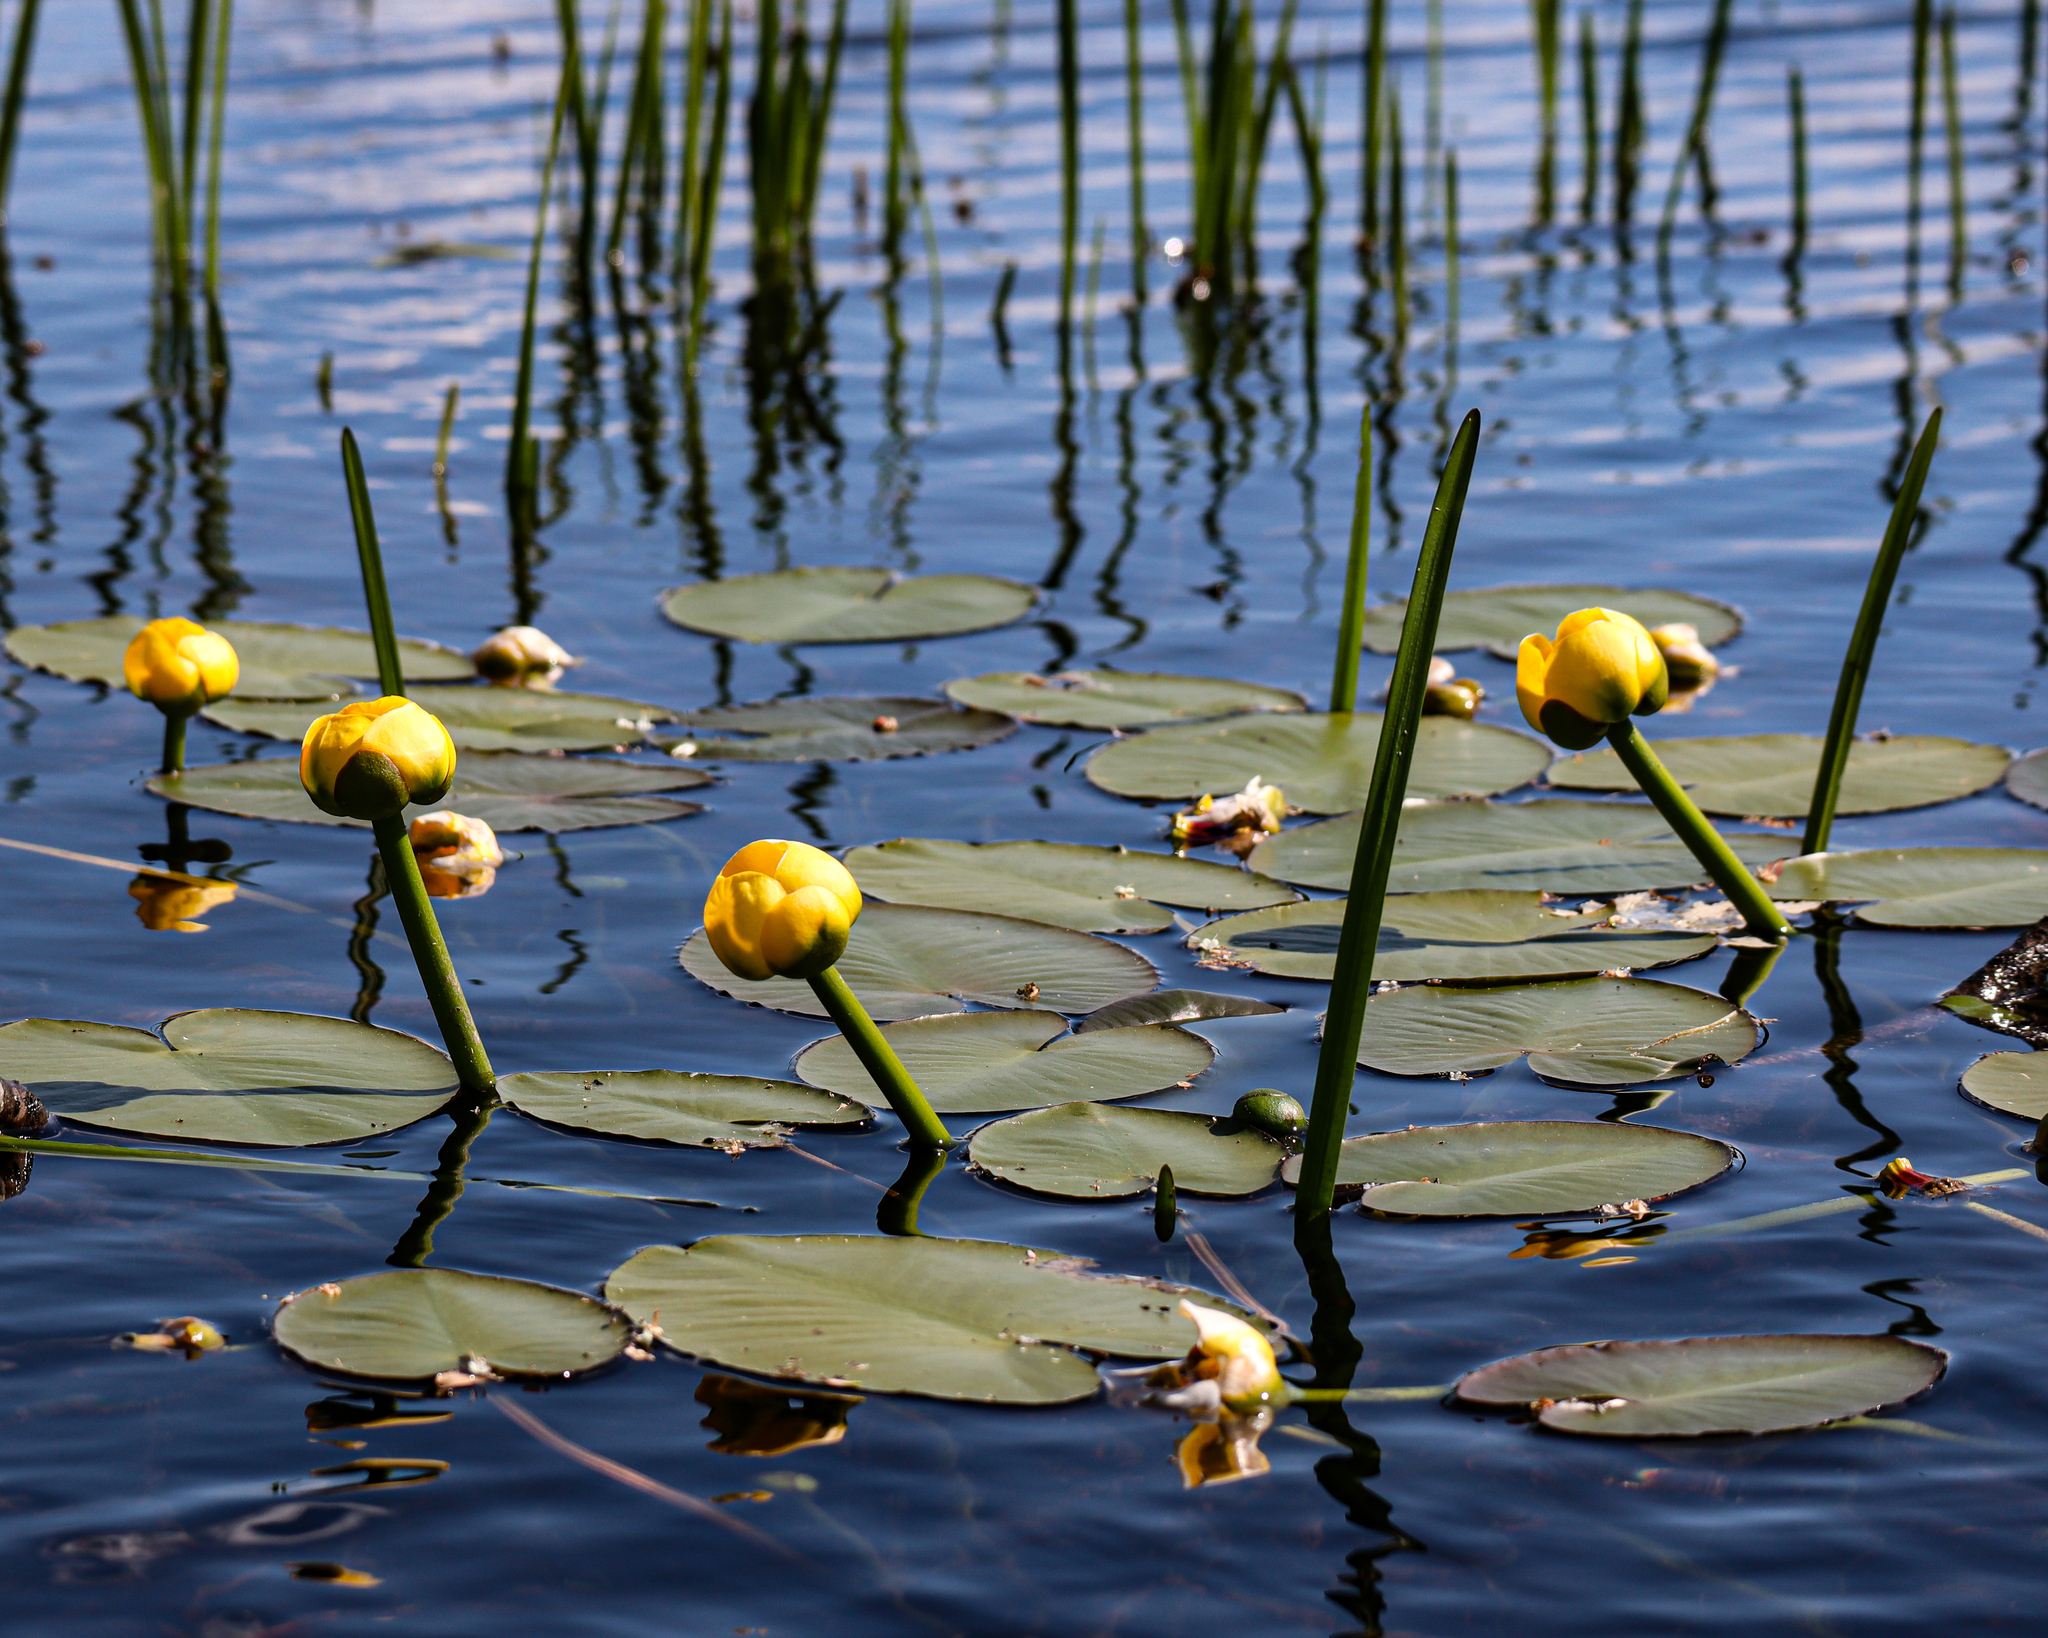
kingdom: Plantae
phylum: Tracheophyta
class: Magnoliopsida
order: Nymphaeales
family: Nymphaeaceae
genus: Nuphar
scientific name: Nuphar variegata
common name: Beaver-root
